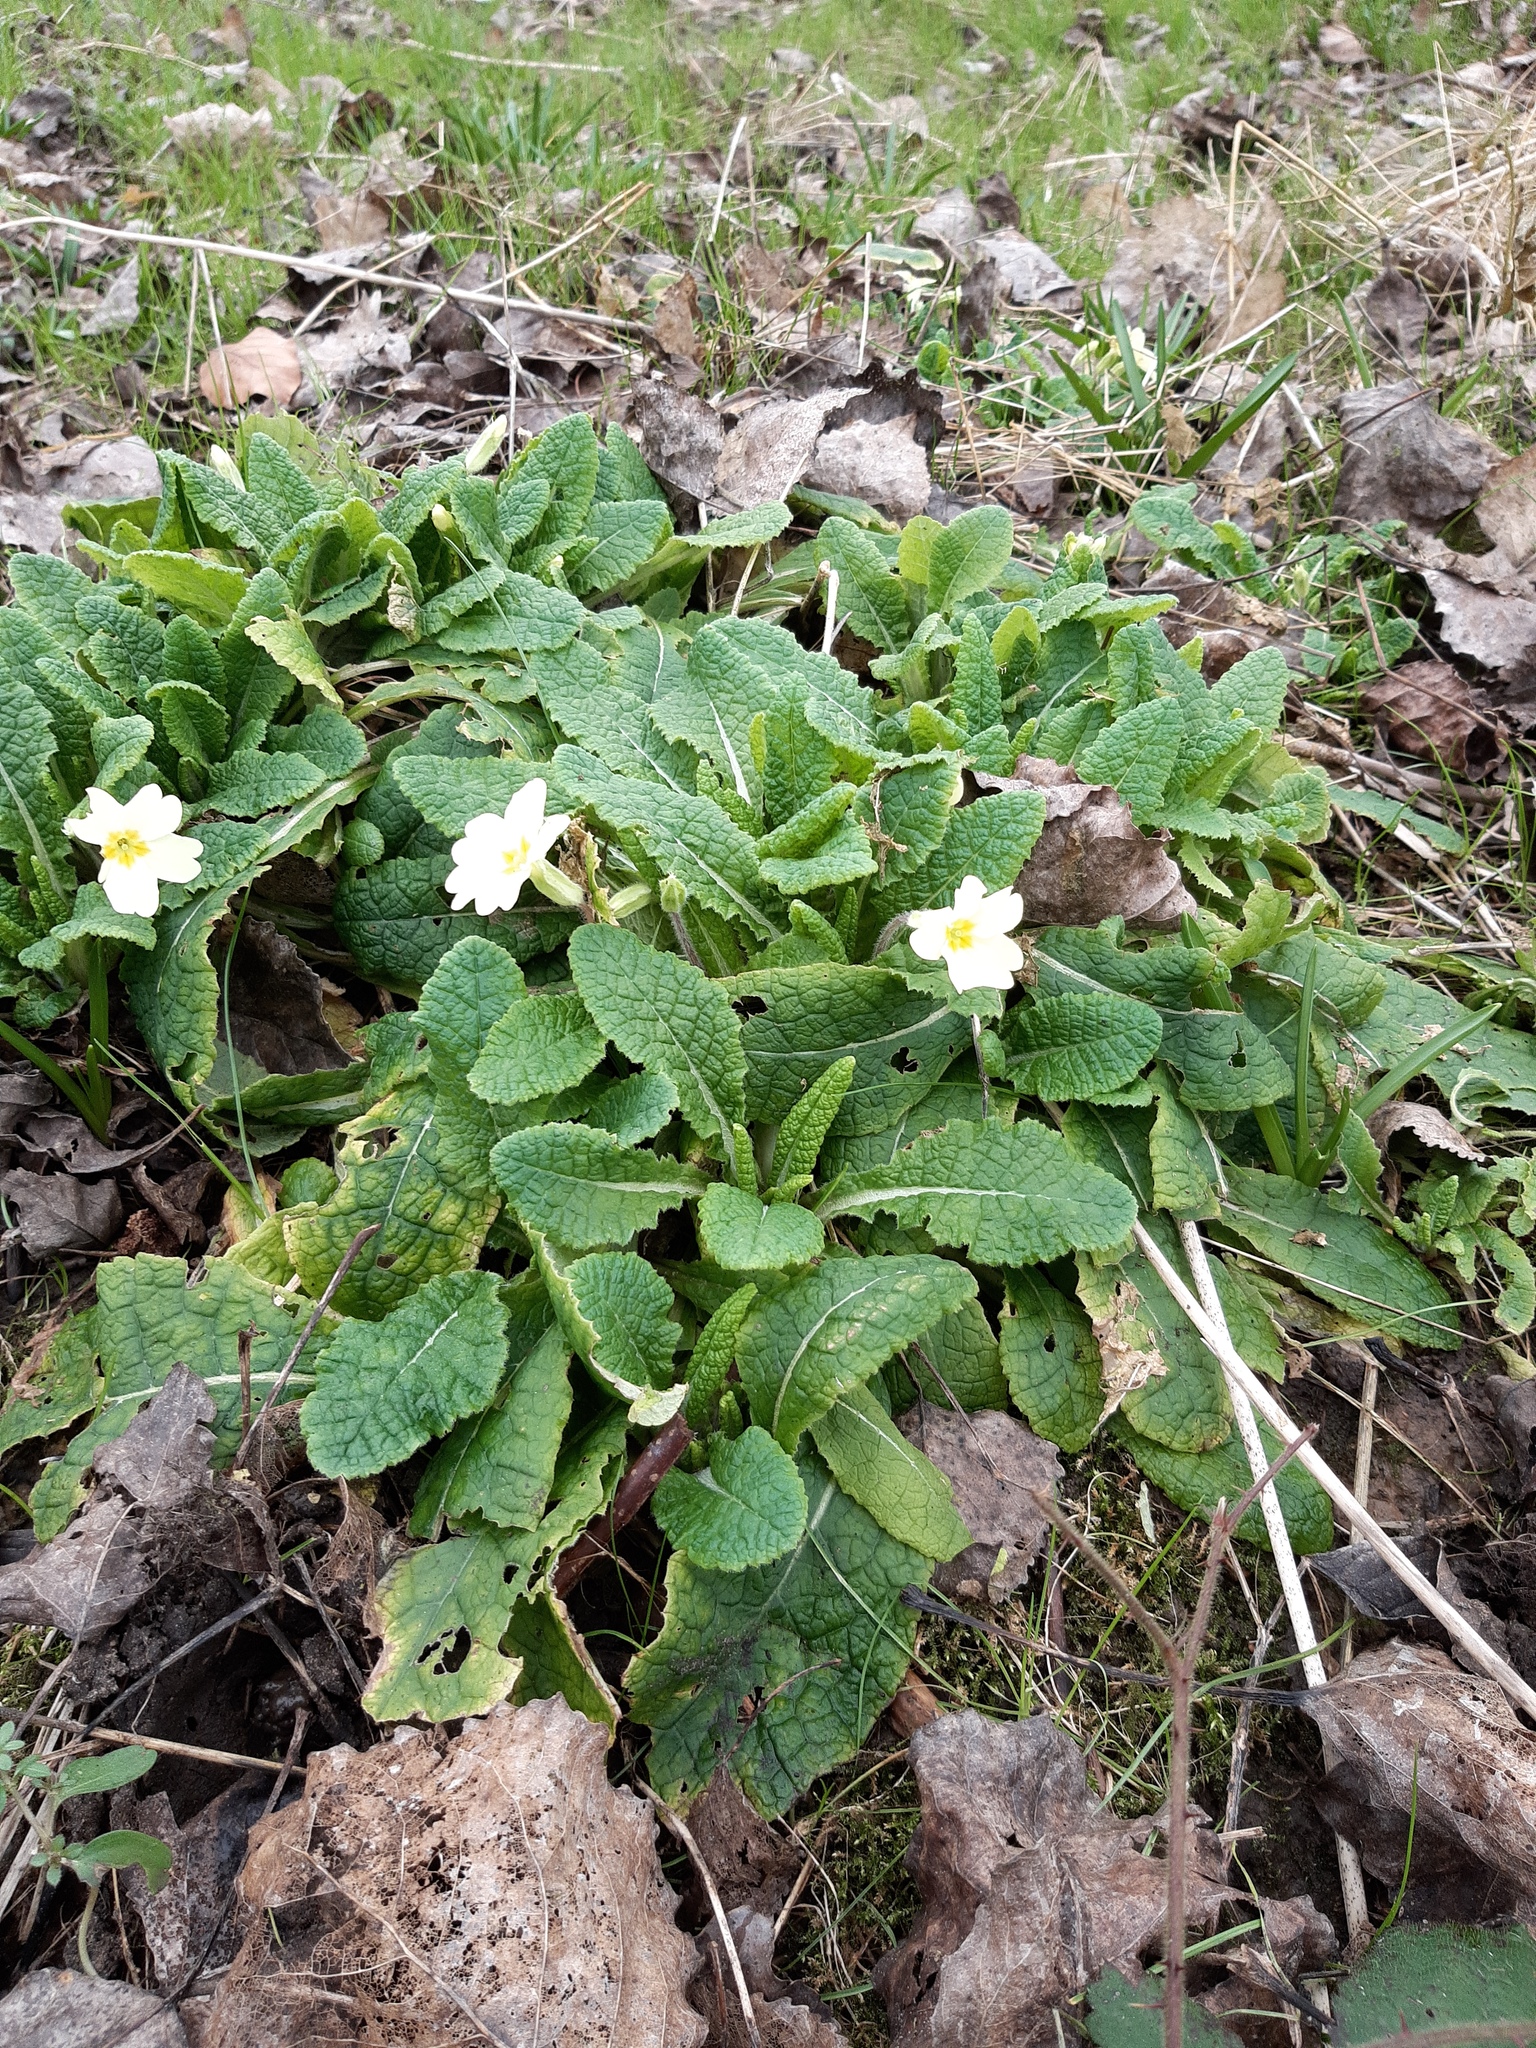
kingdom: Plantae
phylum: Tracheophyta
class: Magnoliopsida
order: Ericales
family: Primulaceae
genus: Primula
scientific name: Primula vulgaris
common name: Primrose
